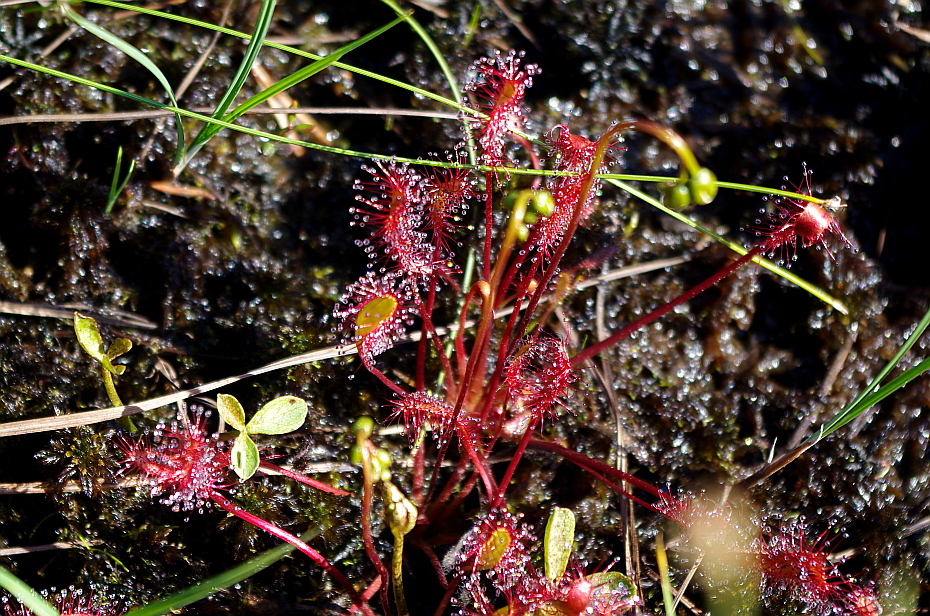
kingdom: Plantae
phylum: Tracheophyta
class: Magnoliopsida
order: Caryophyllales
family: Droseraceae
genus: Drosera
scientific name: Drosera anglica
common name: Great sundew
